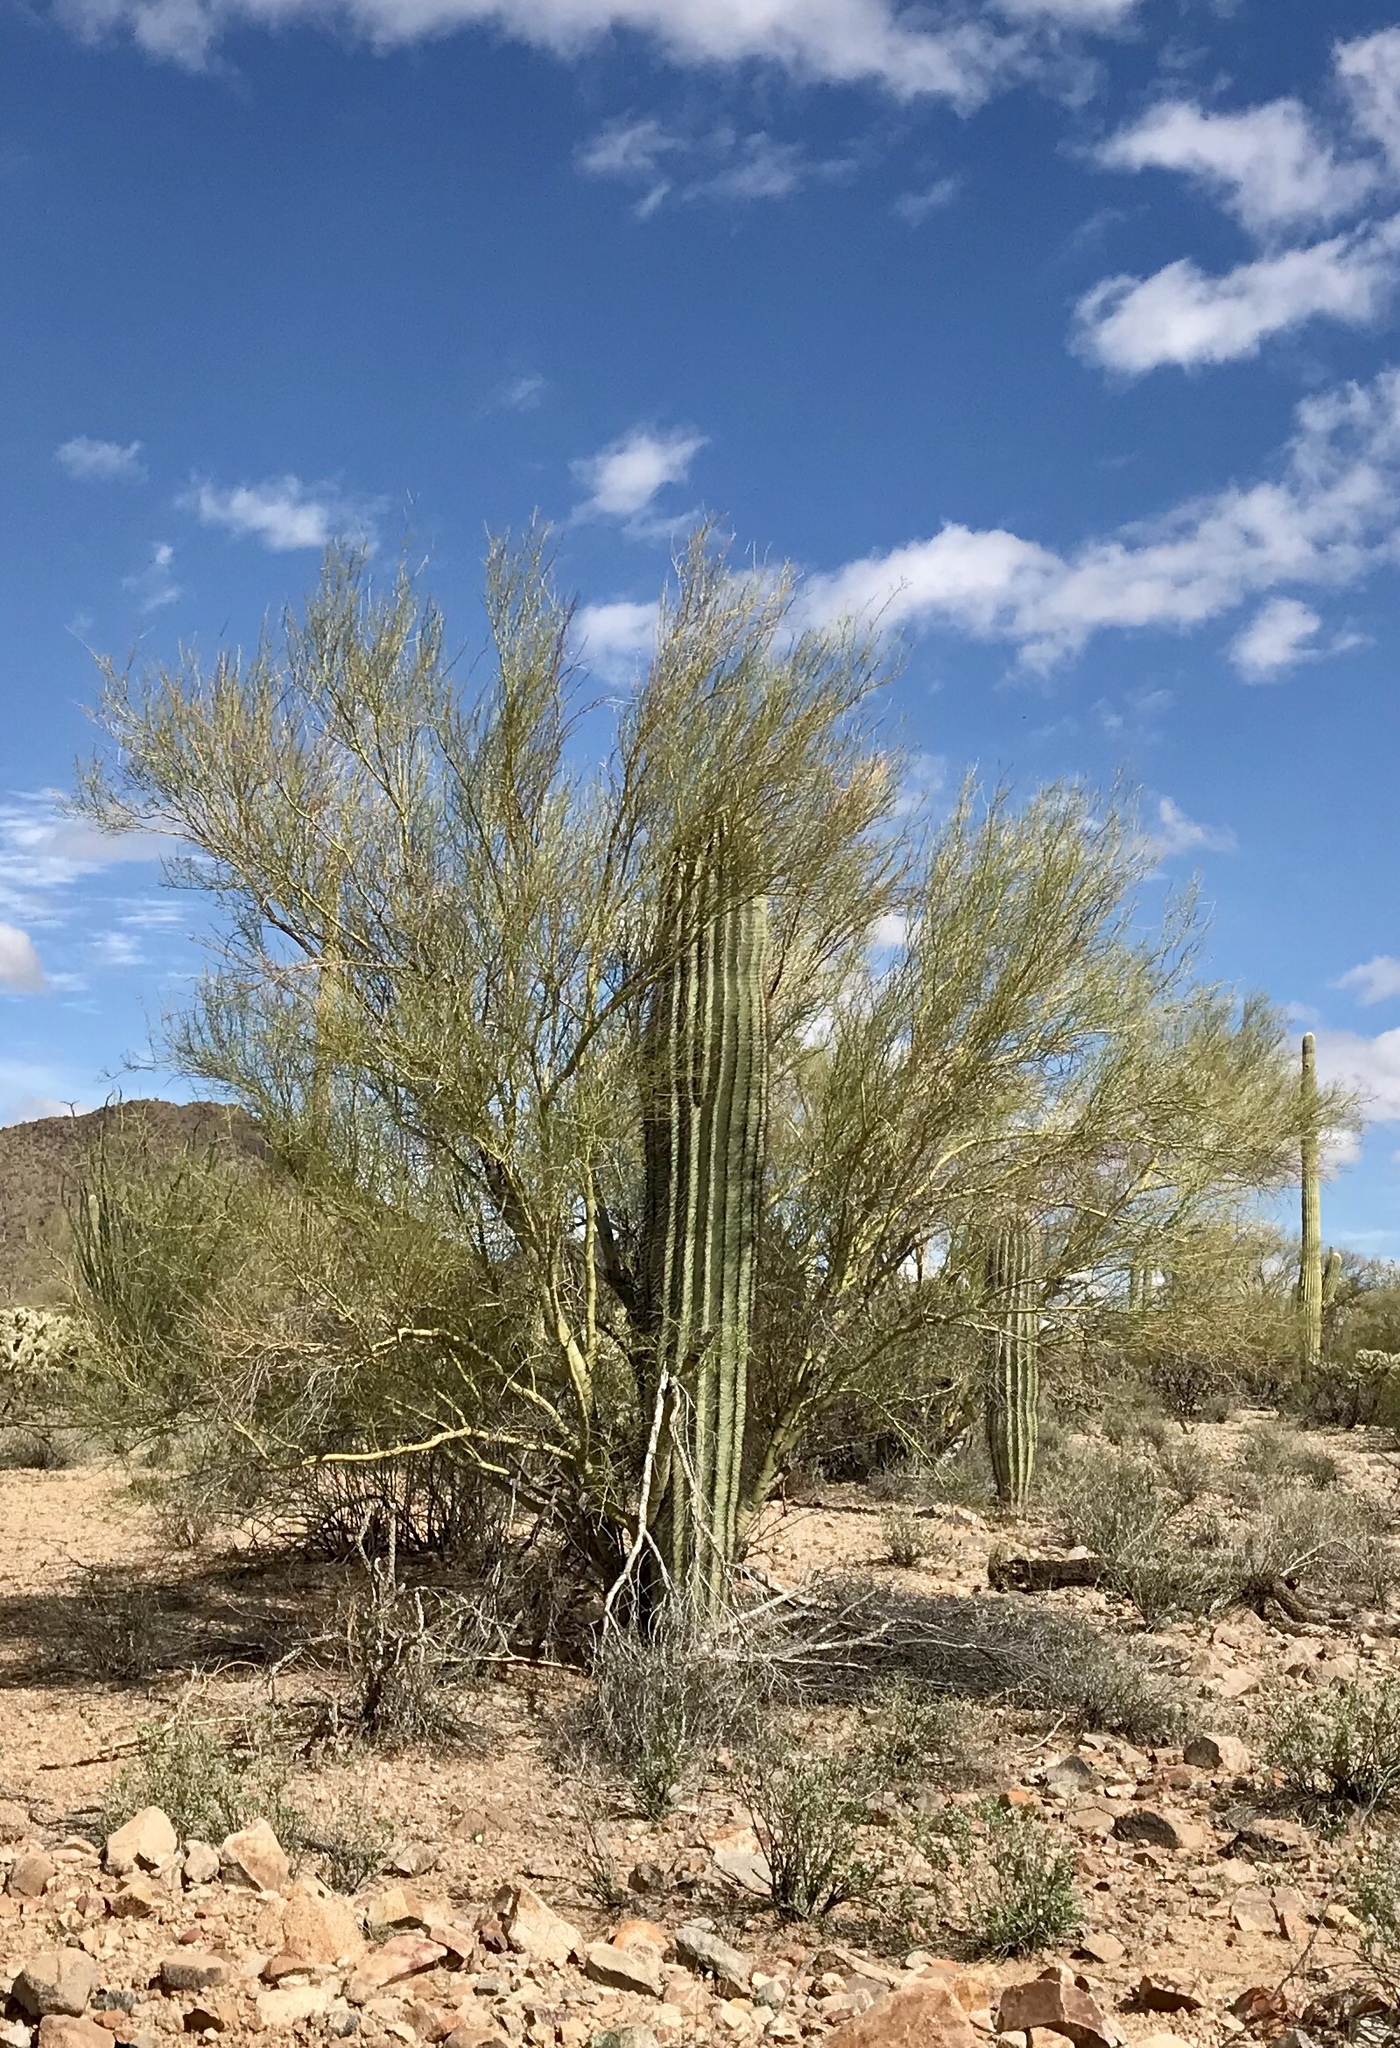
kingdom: Plantae
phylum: Tracheophyta
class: Magnoliopsida
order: Fabales
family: Fabaceae
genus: Parkinsonia
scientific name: Parkinsonia microphylla
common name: Yellow paloverde
